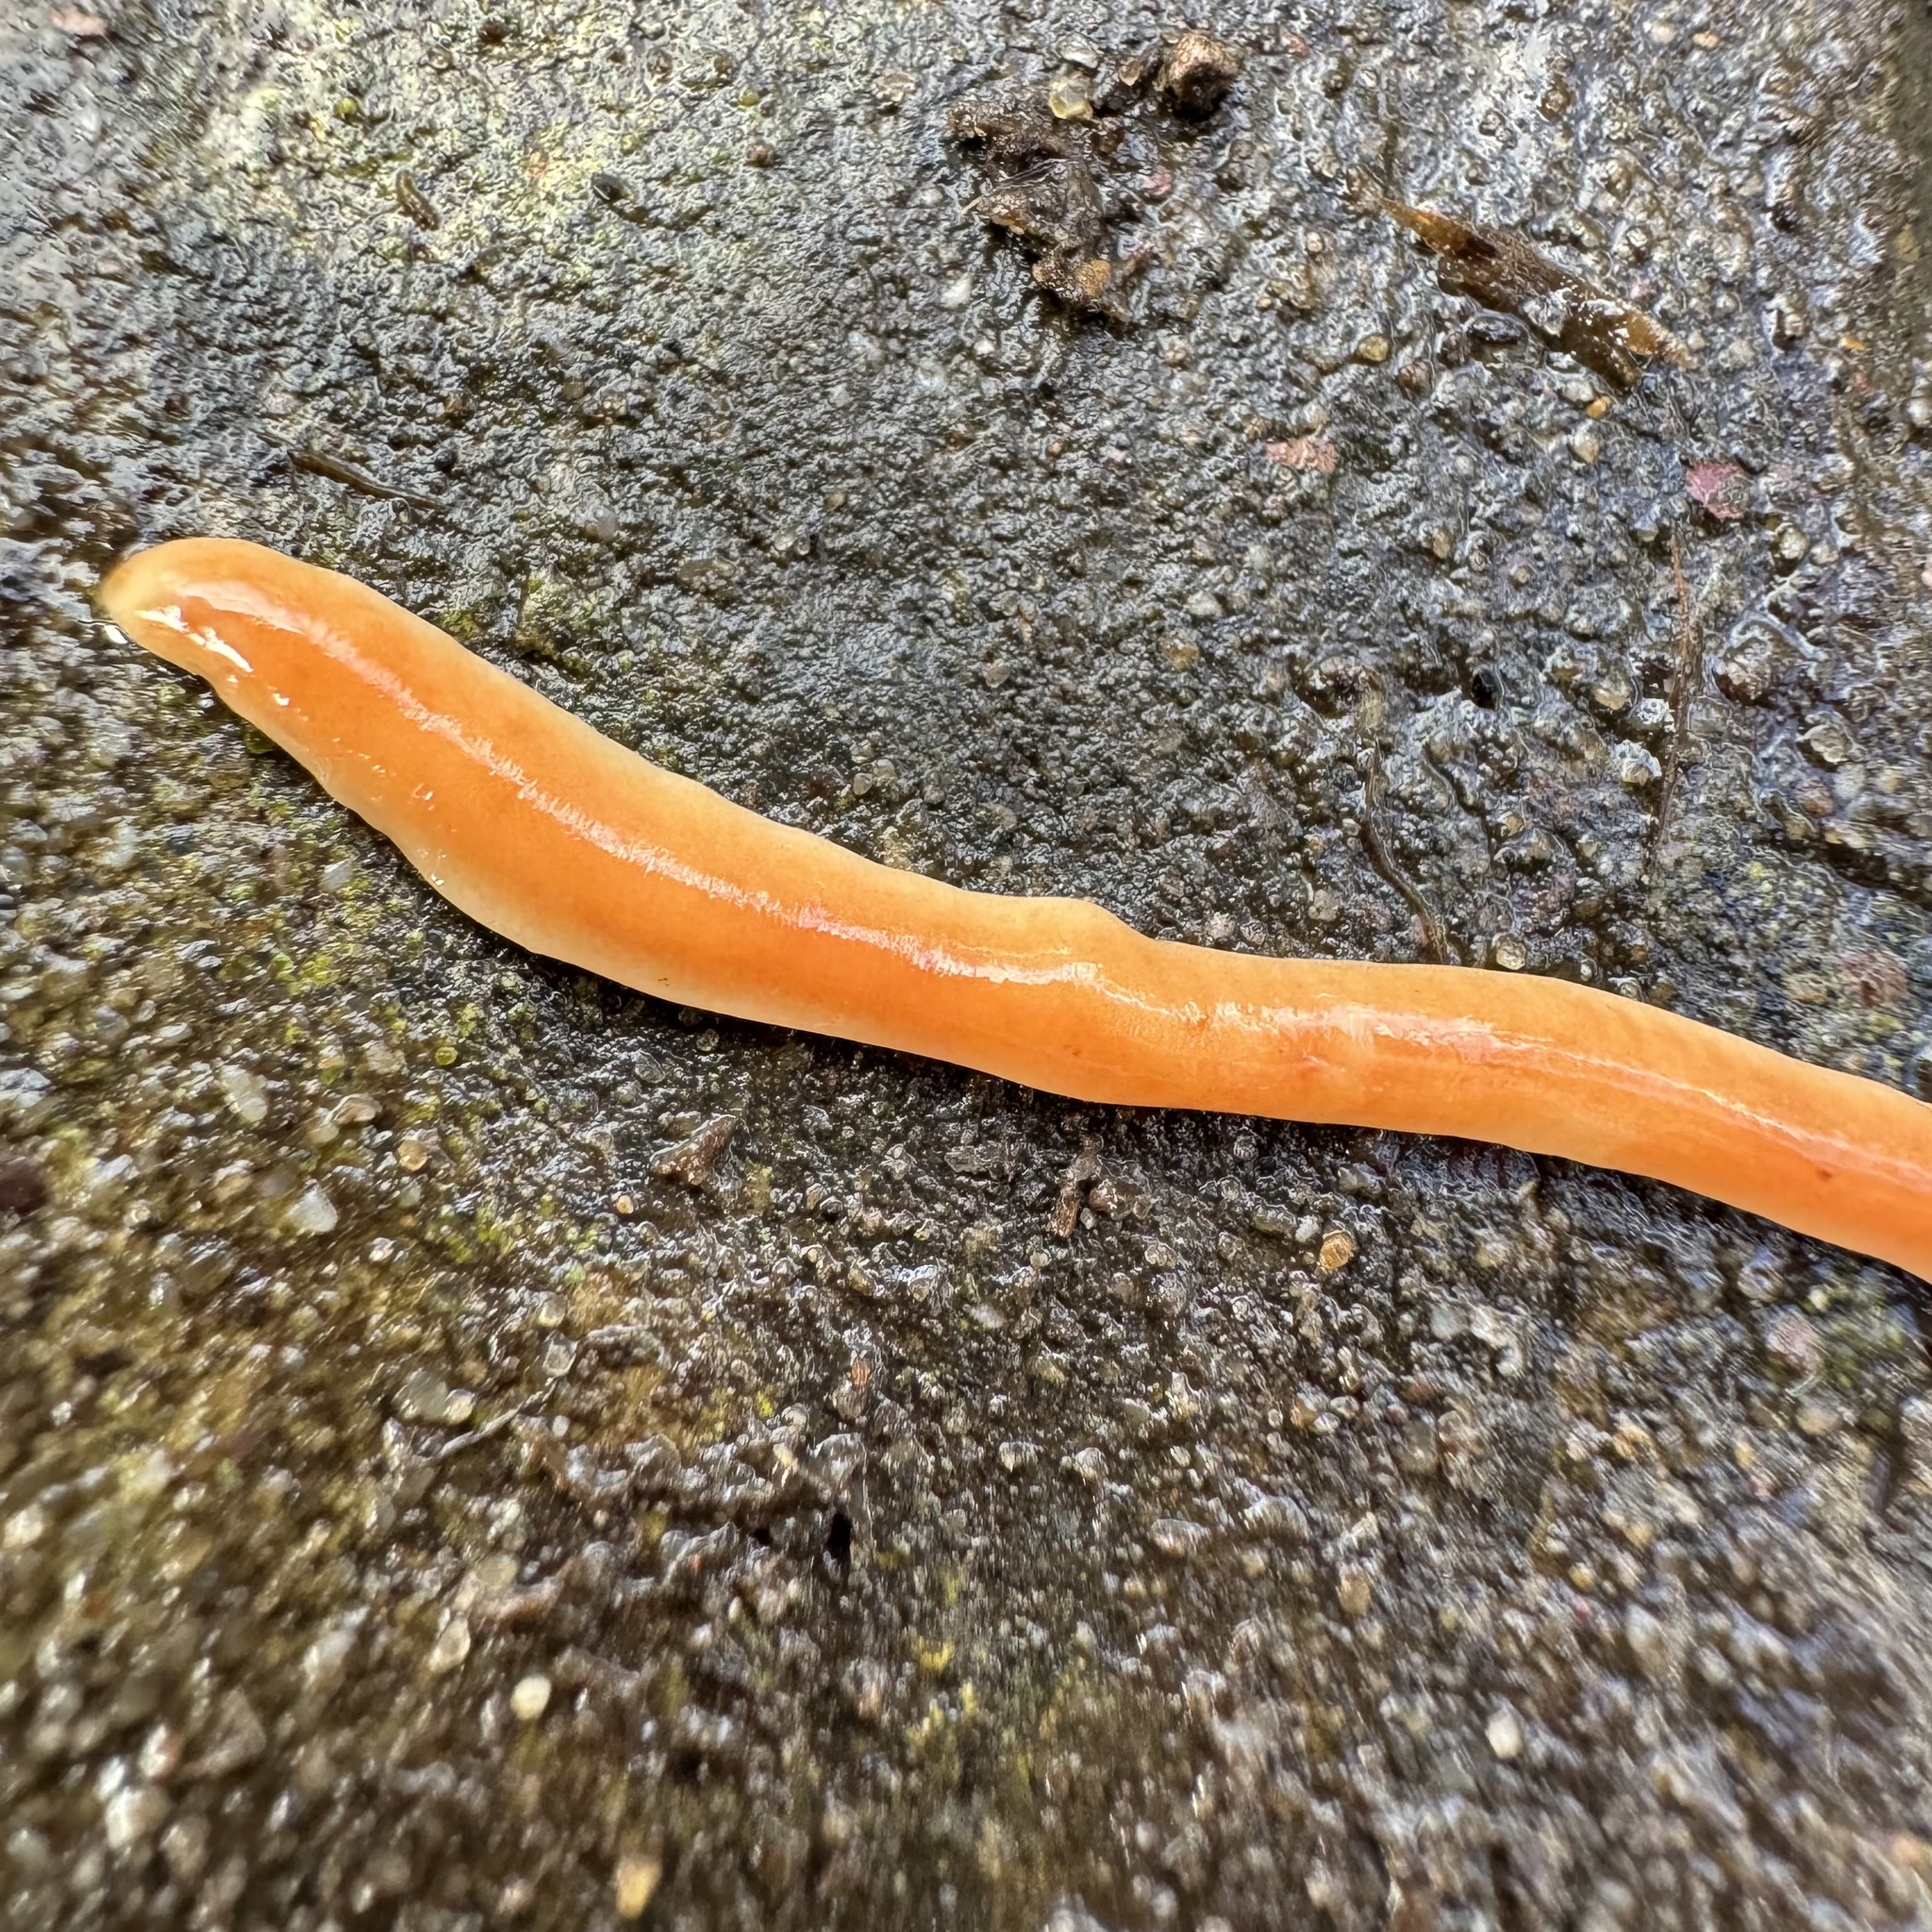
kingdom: Animalia
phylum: Platyhelminthes
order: Tricladida
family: Geoplanidae
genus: Australoplana
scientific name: Australoplana sanguinea
